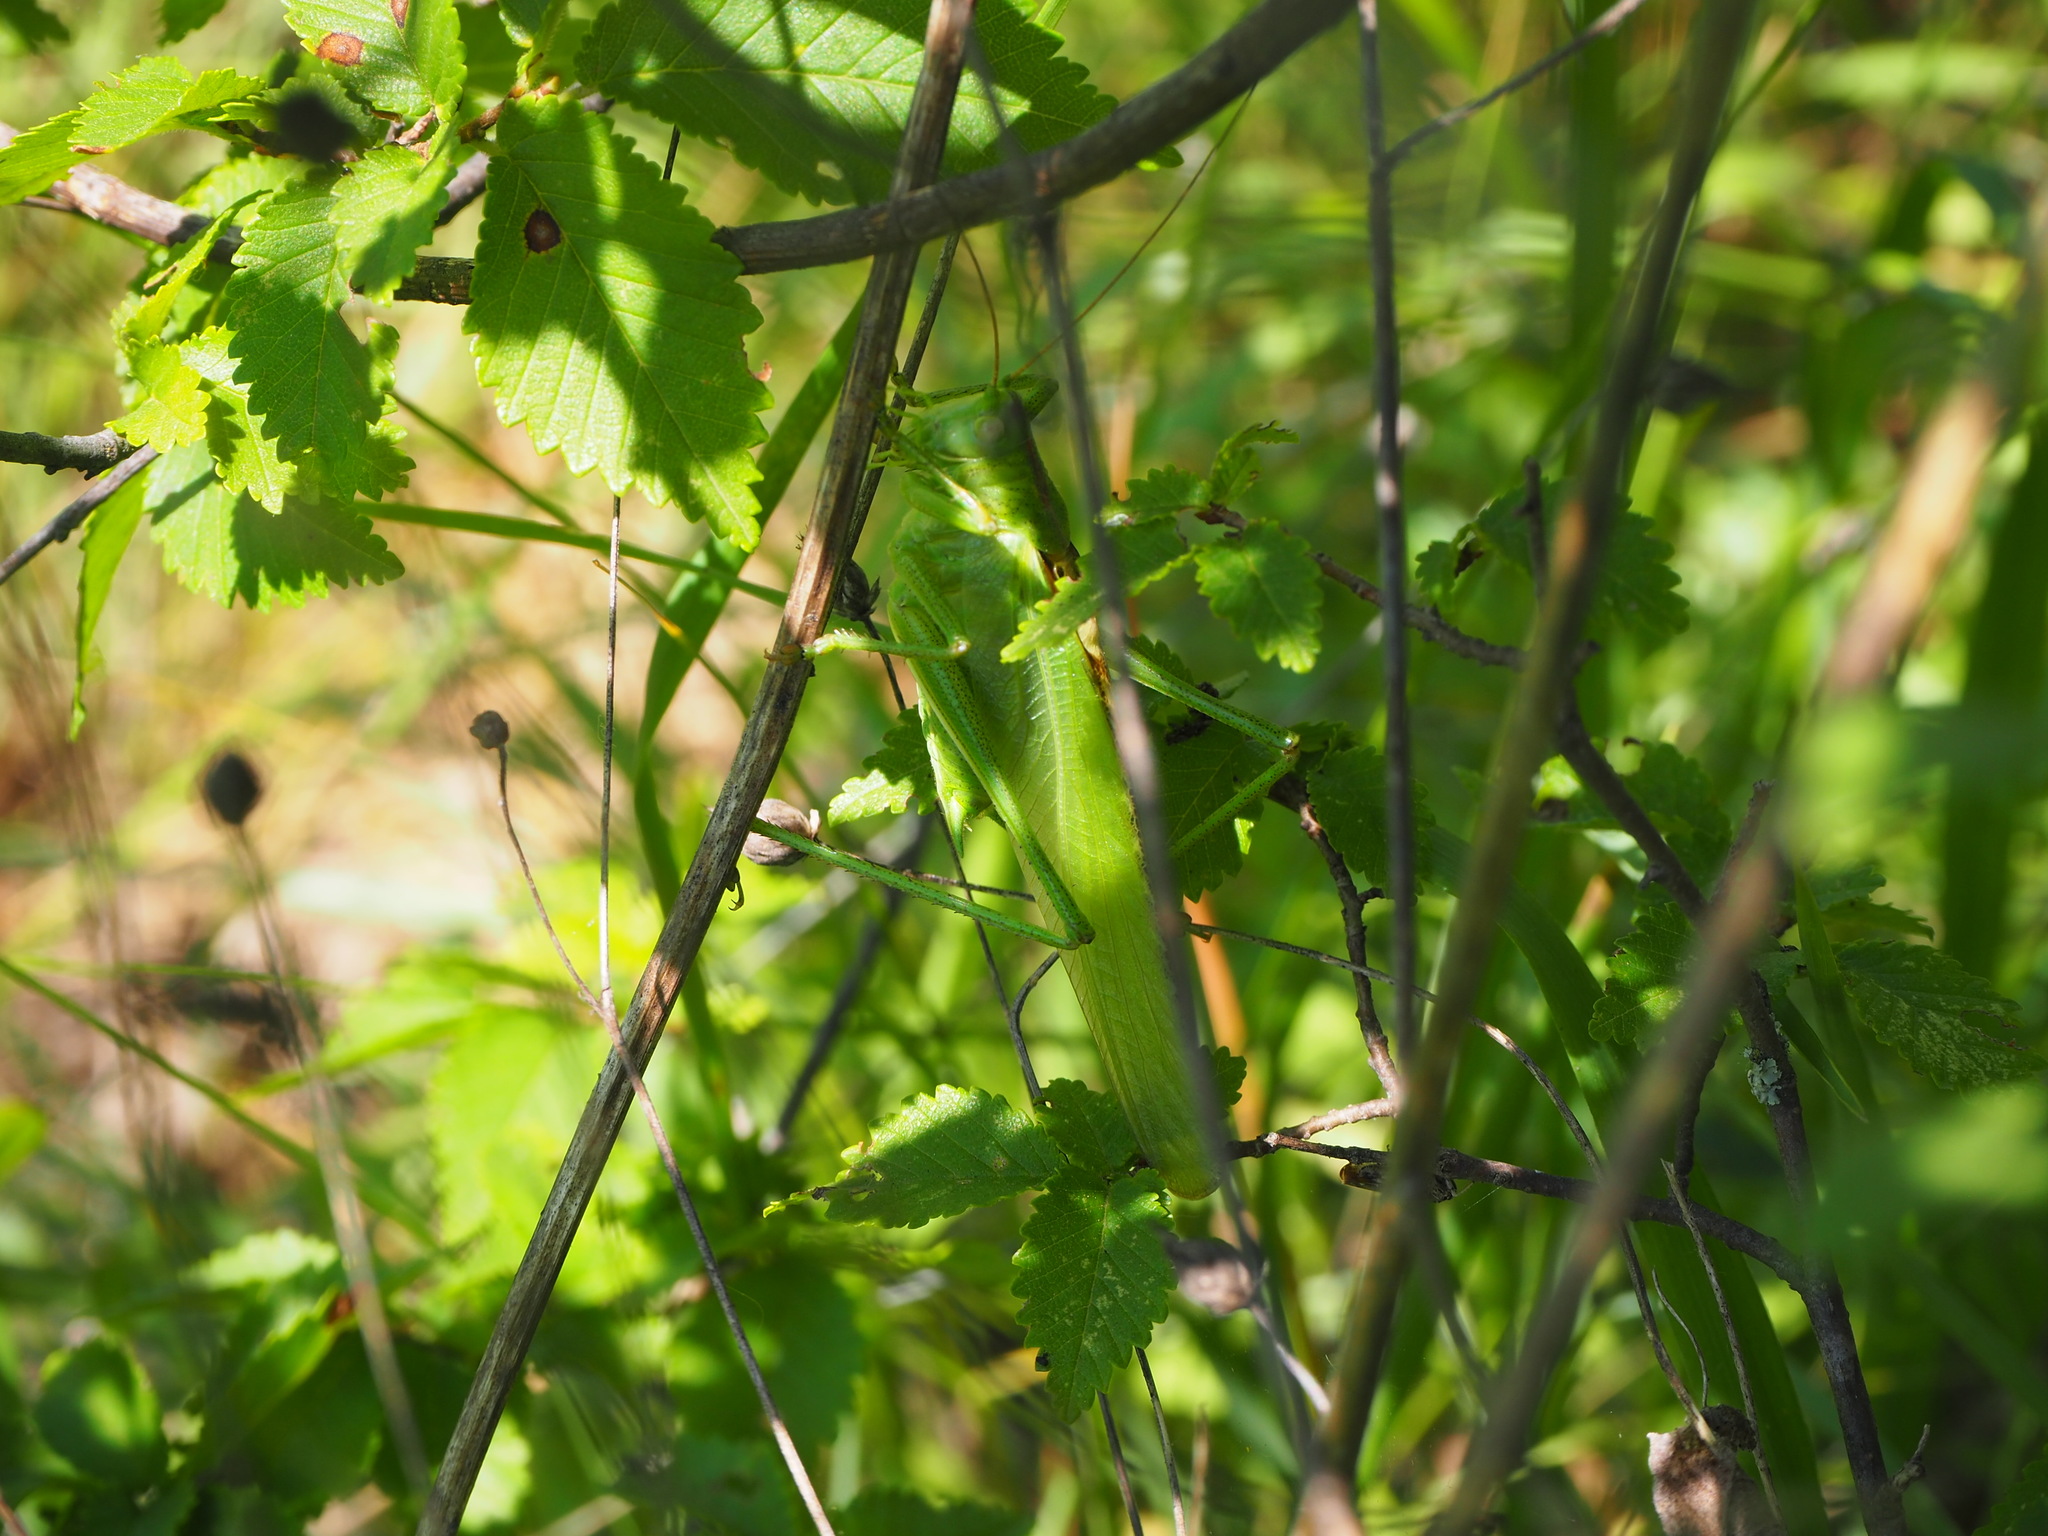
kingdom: Animalia
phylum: Arthropoda
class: Insecta
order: Orthoptera
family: Tettigoniidae
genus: Tettigonia
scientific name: Tettigonia viridissima
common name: Great green bush-cricket
